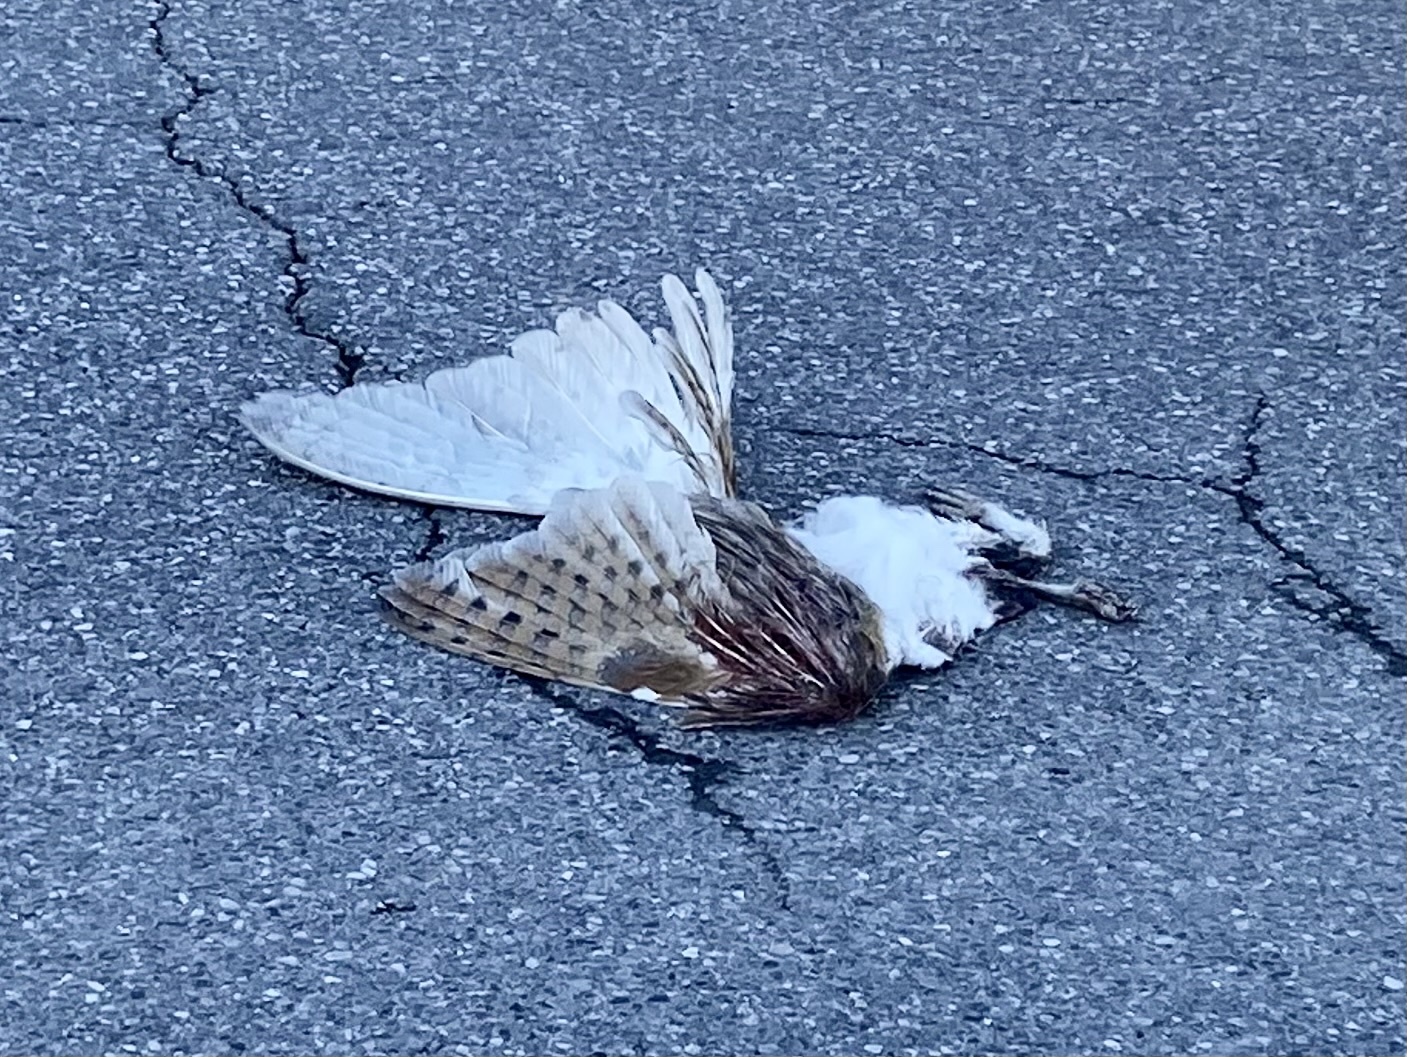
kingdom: Animalia
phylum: Chordata
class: Aves
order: Strigiformes
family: Tytonidae
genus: Tyto
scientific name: Tyto alba
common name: Barn owl
